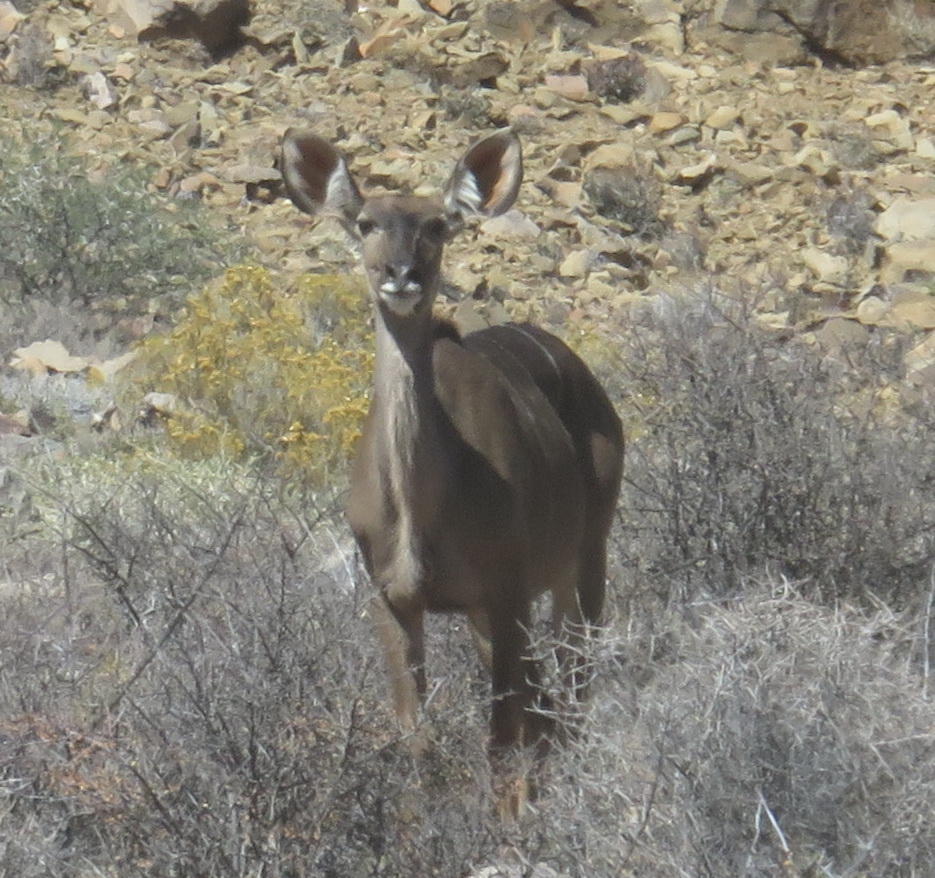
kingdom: Animalia
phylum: Chordata
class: Mammalia
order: Artiodactyla
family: Bovidae
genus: Tragelaphus
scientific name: Tragelaphus strepsiceros
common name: Greater kudu
